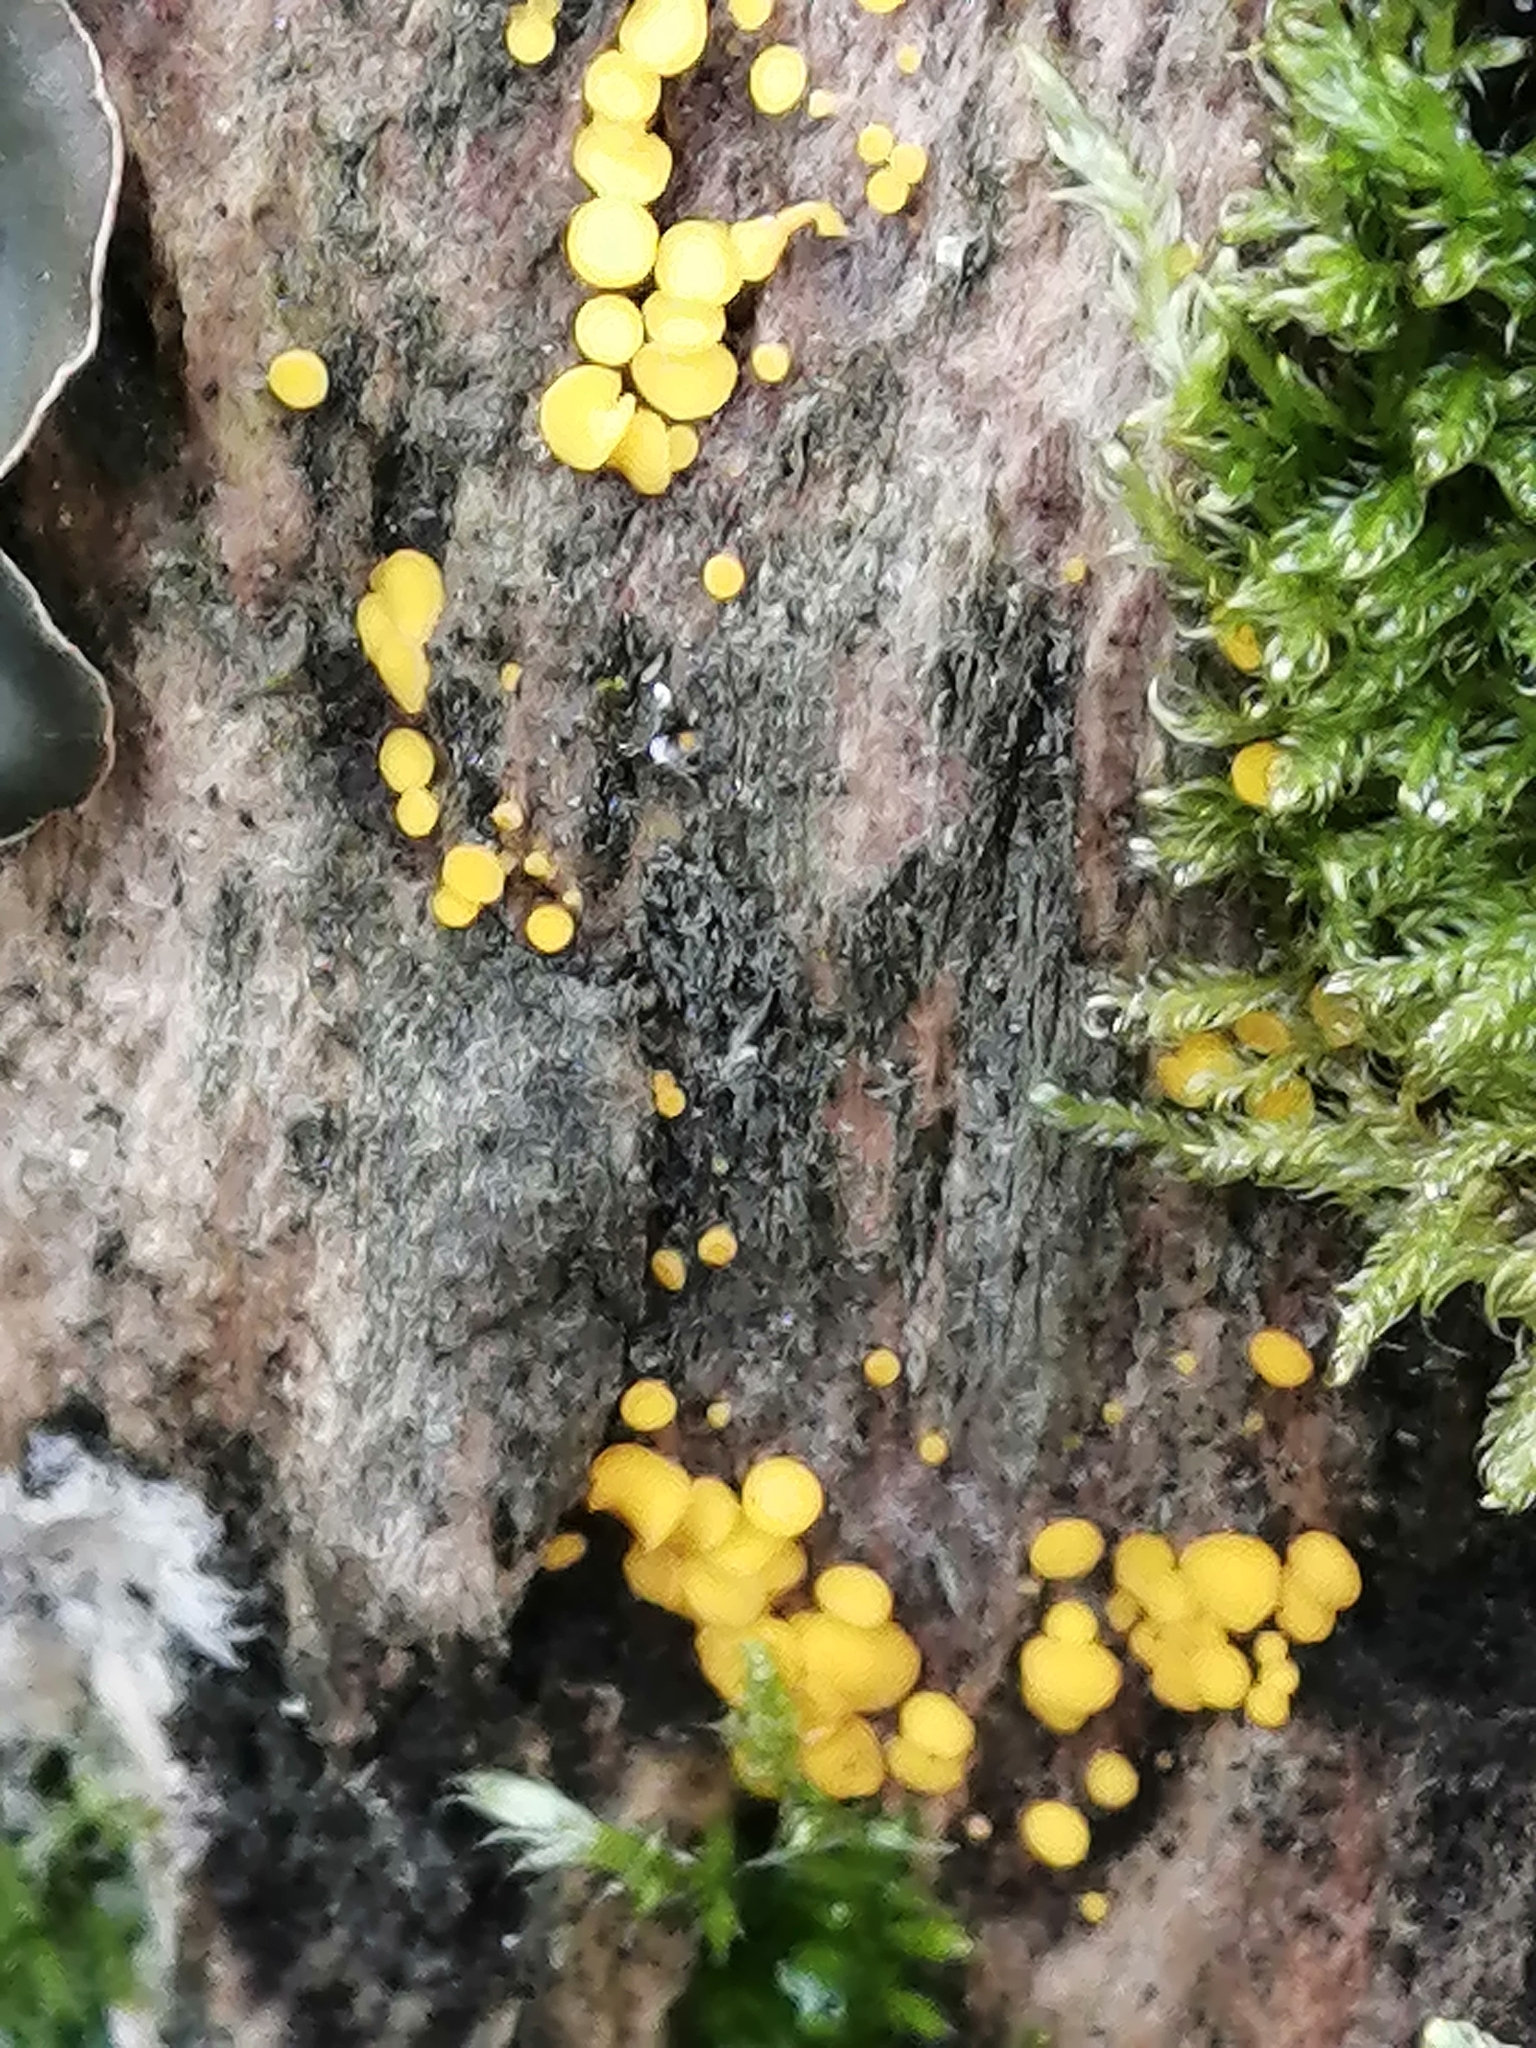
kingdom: Fungi
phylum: Ascomycota
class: Leotiomycetes
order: Helotiales
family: Pezizellaceae
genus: Calycina
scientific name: Calycina citrina
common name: Yellow fairy cups
